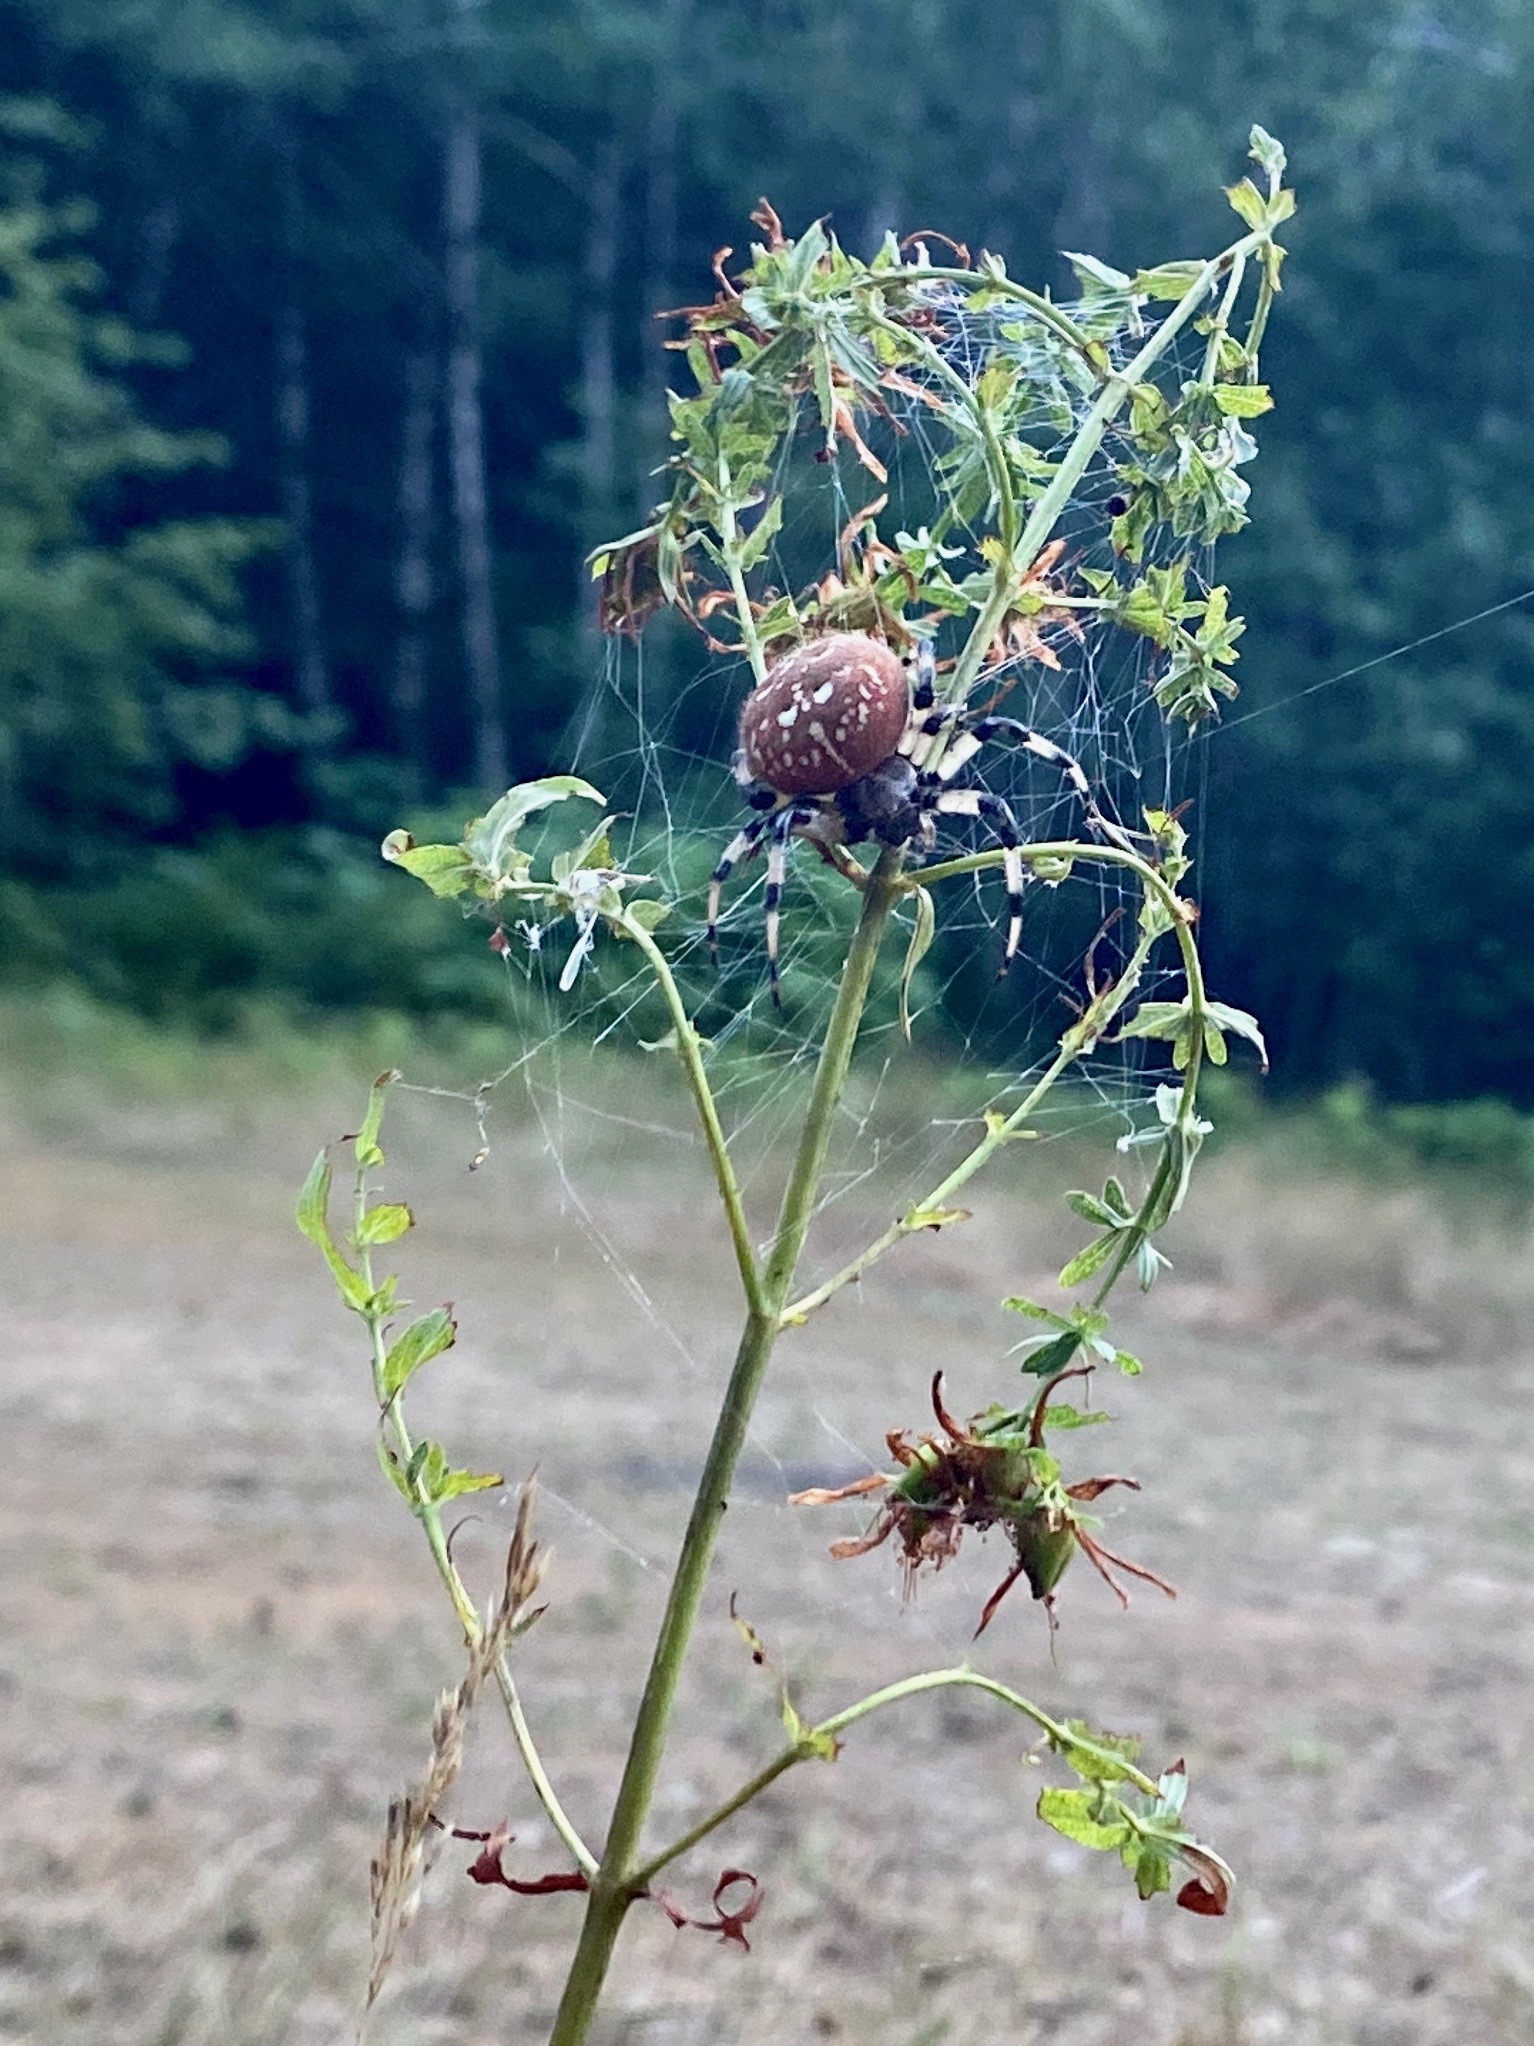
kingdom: Animalia
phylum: Arthropoda
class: Arachnida
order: Araneae
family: Araneidae
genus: Araneus
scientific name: Araneus trifolium
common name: Shamrock orbweaver
